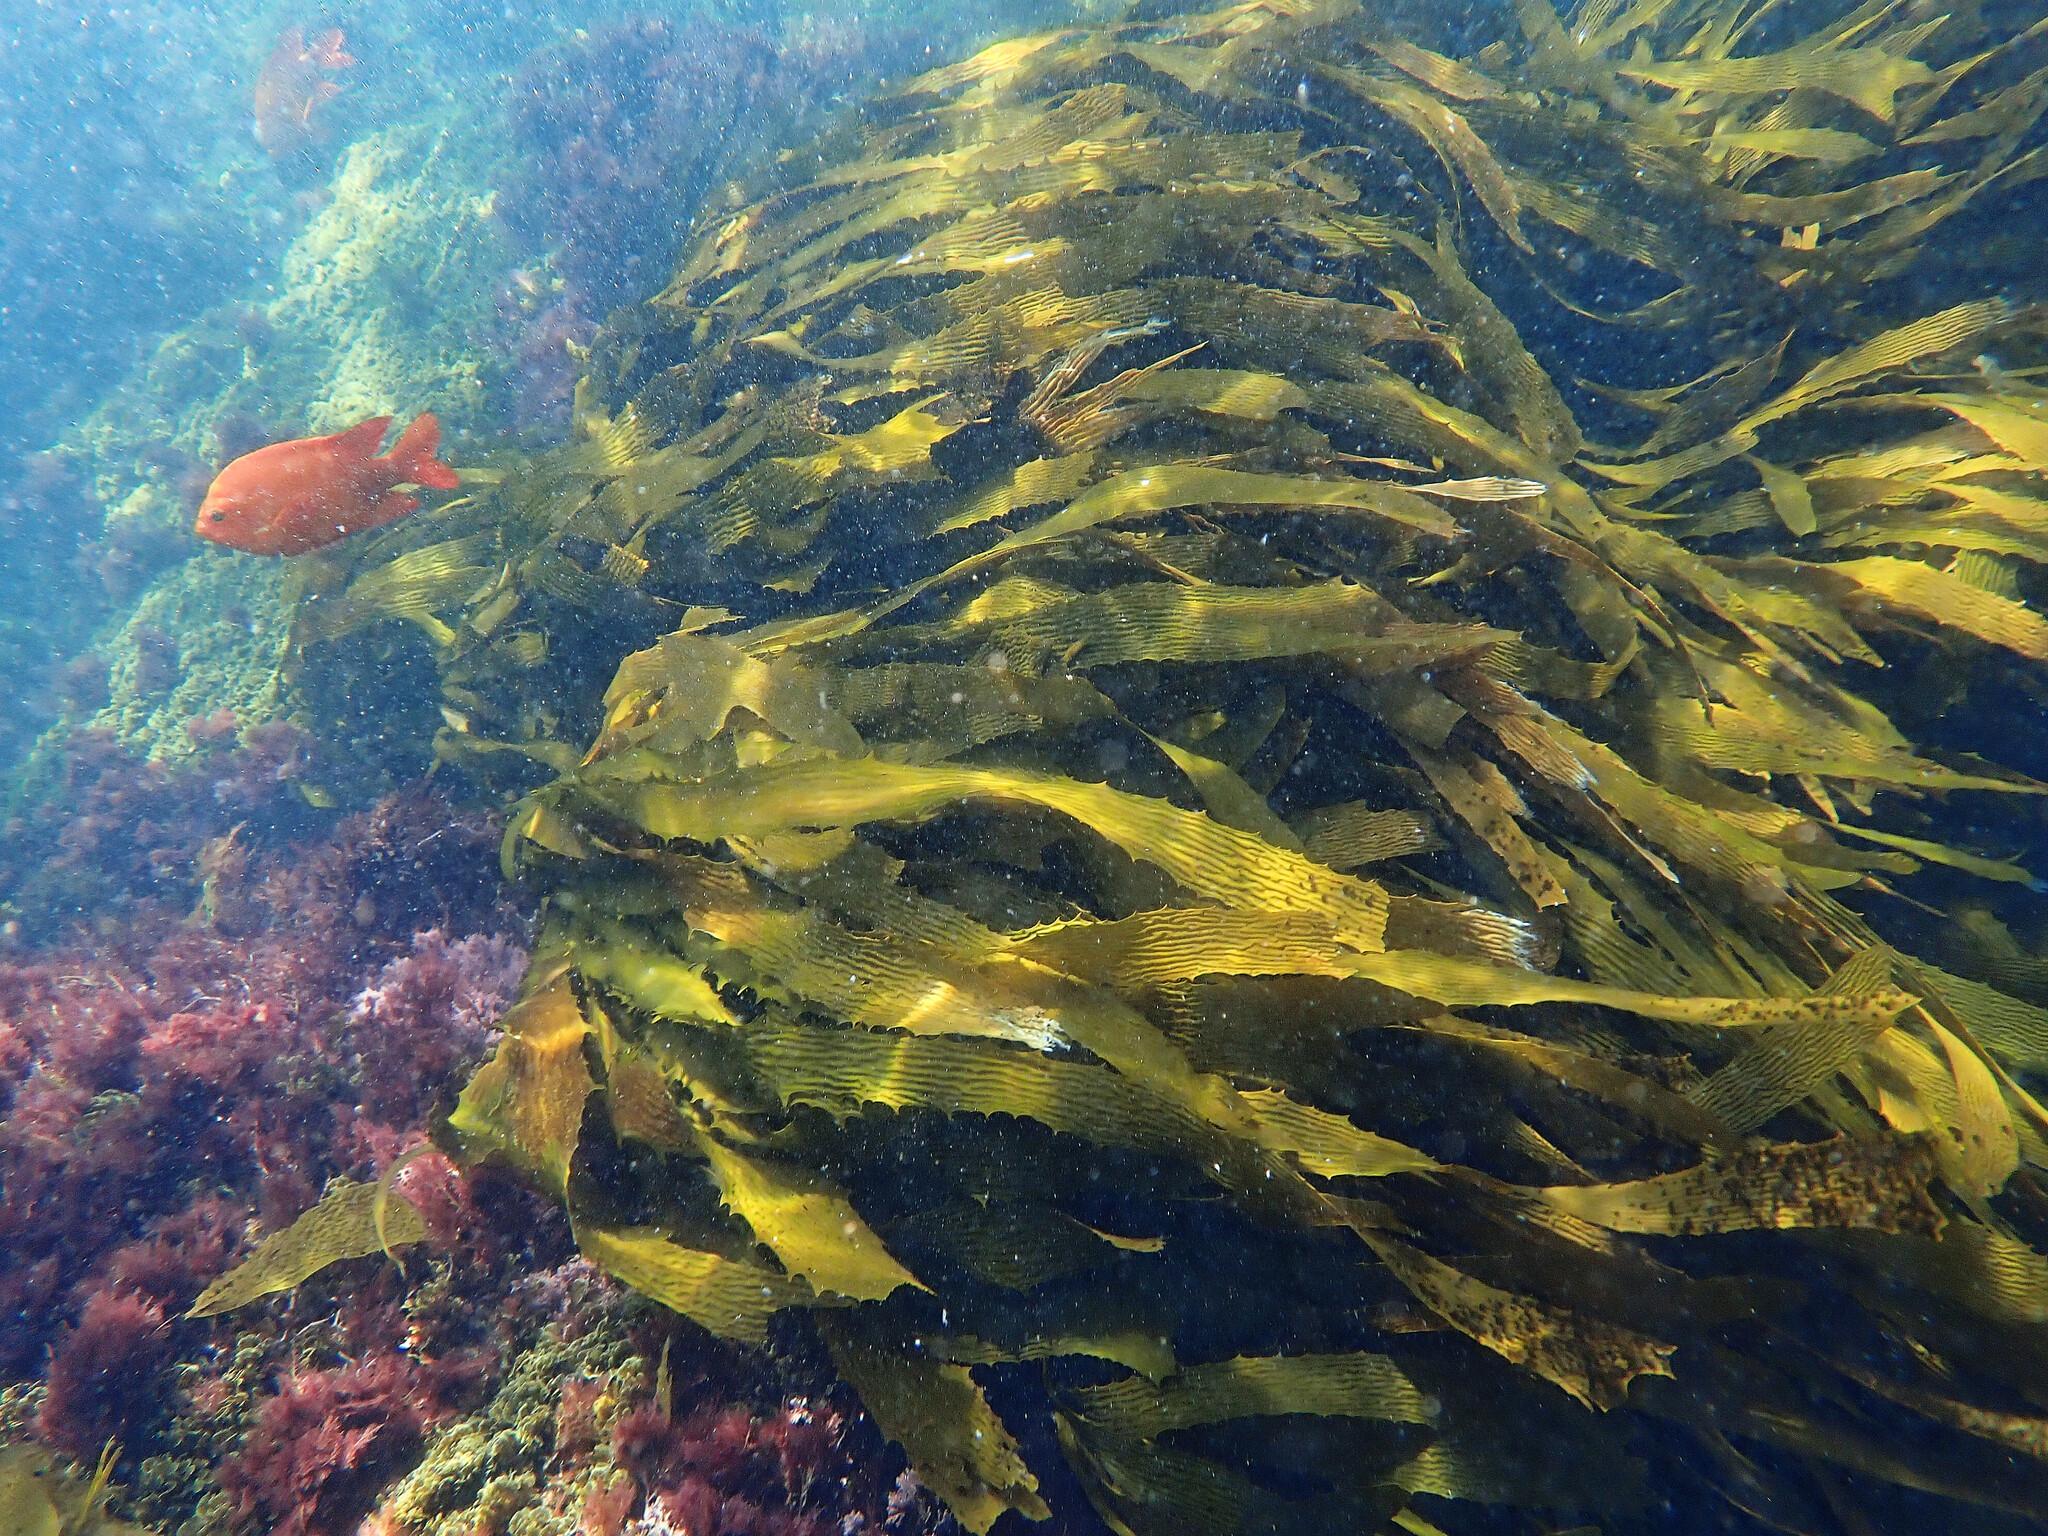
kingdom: Chromista
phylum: Ochrophyta
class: Phaeophyceae
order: Laminariales
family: Lessoniaceae
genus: Eisenia
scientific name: Eisenia arborea
